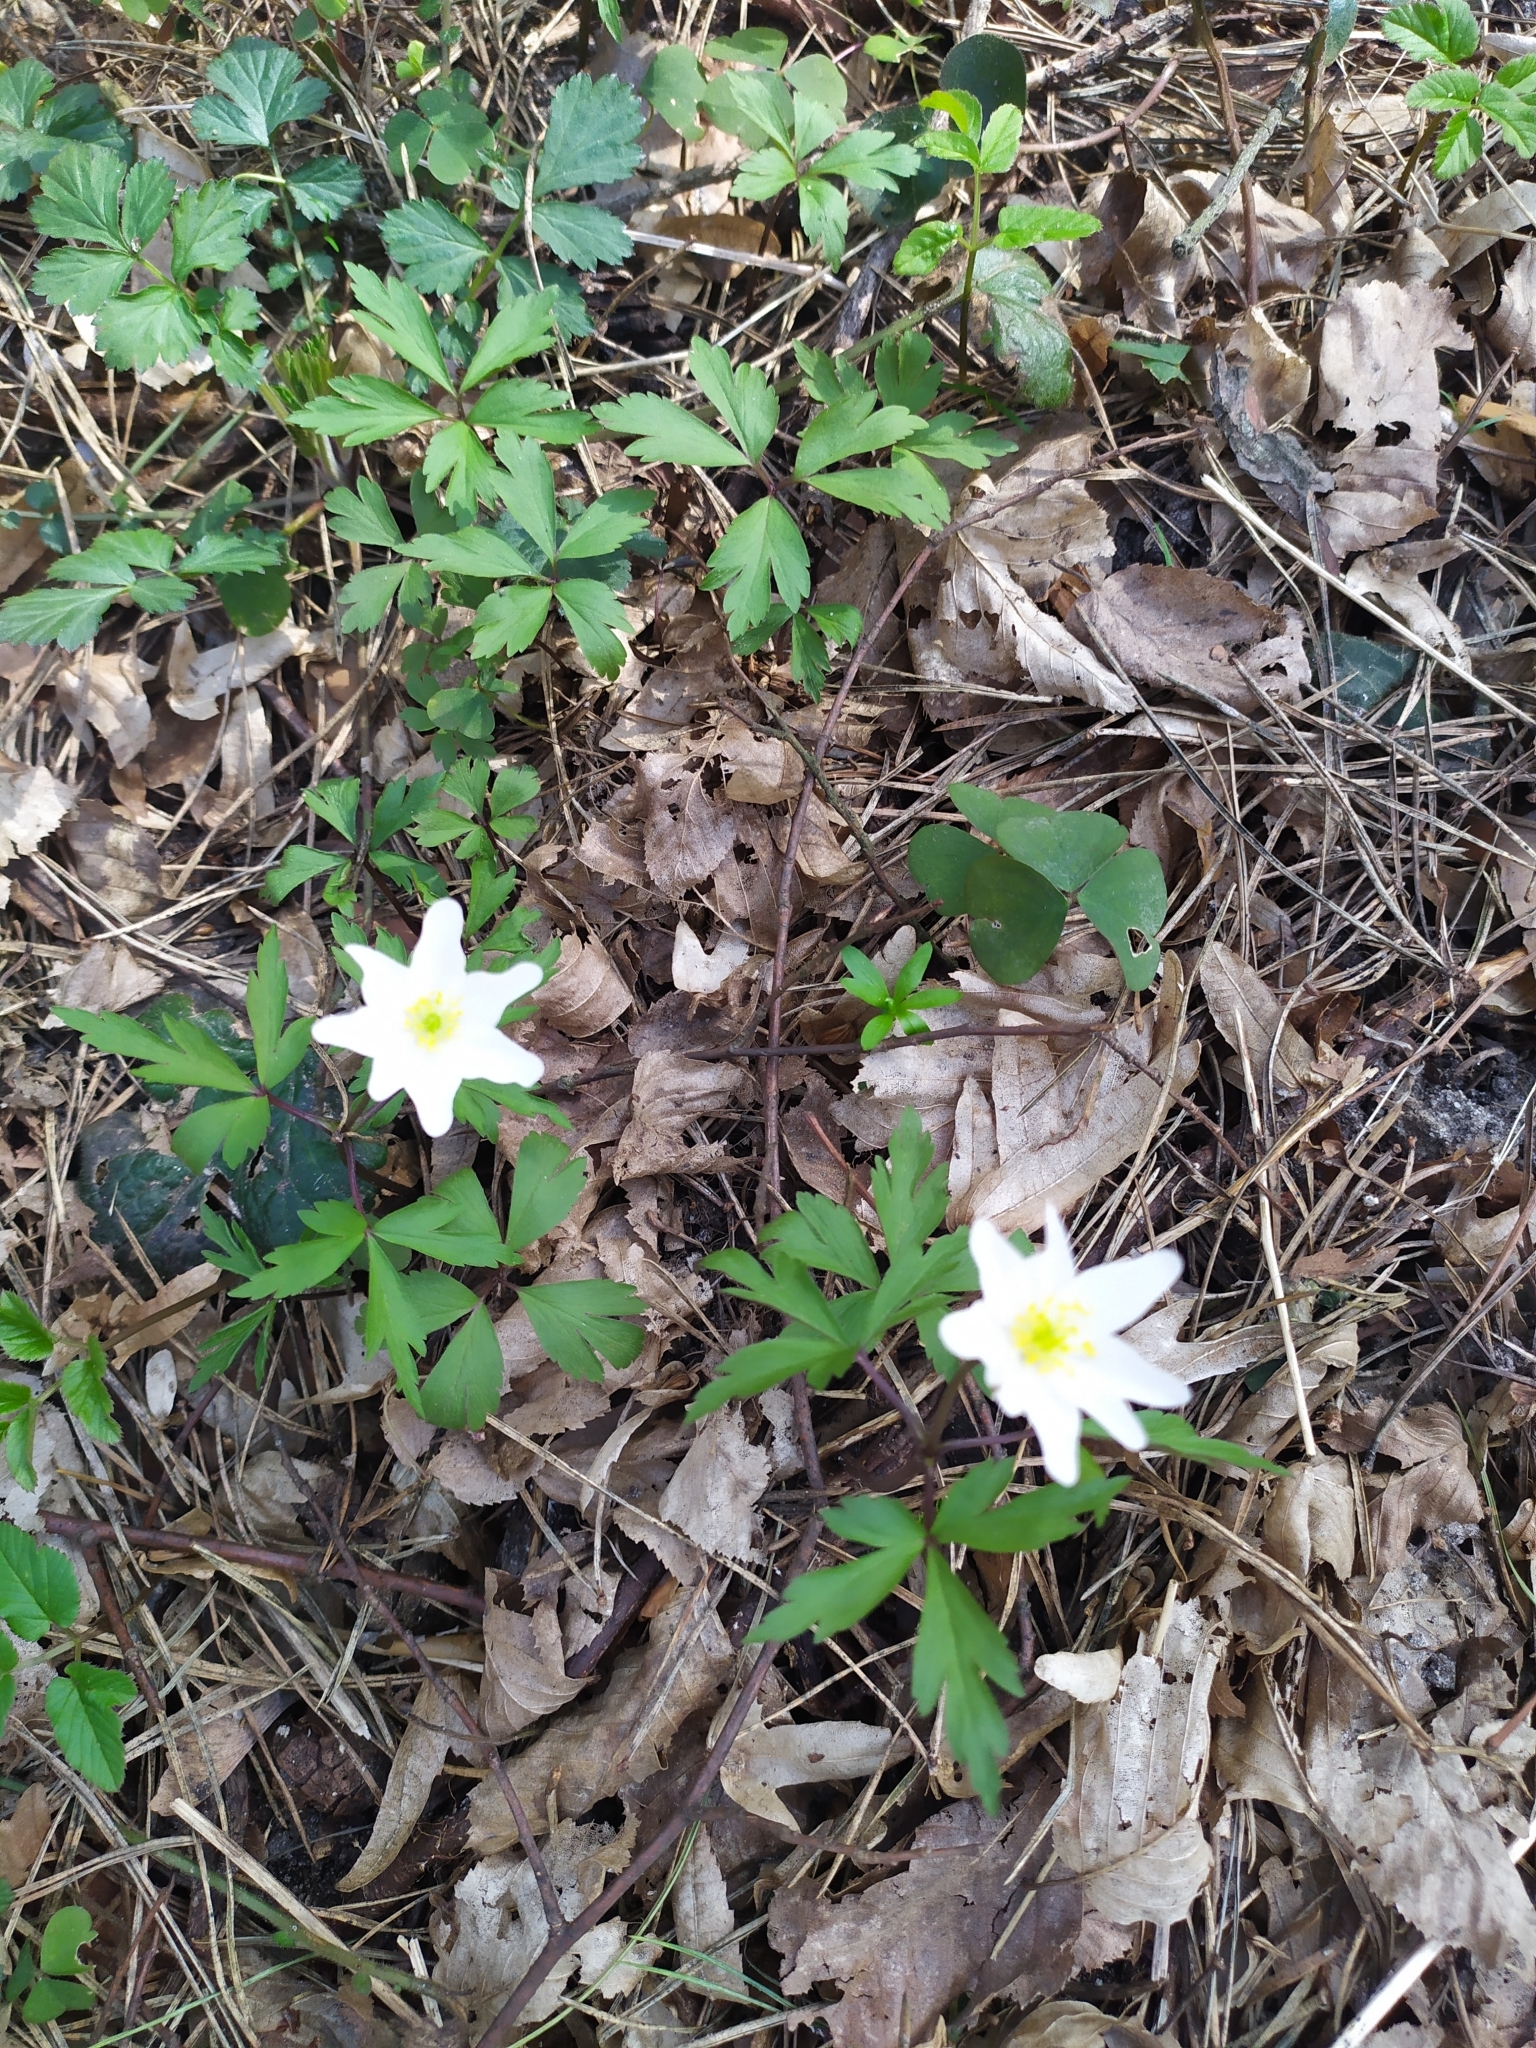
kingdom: Plantae
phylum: Tracheophyta
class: Magnoliopsida
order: Ranunculales
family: Ranunculaceae
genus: Anemone
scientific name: Anemone nemorosa
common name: Wood anemone
